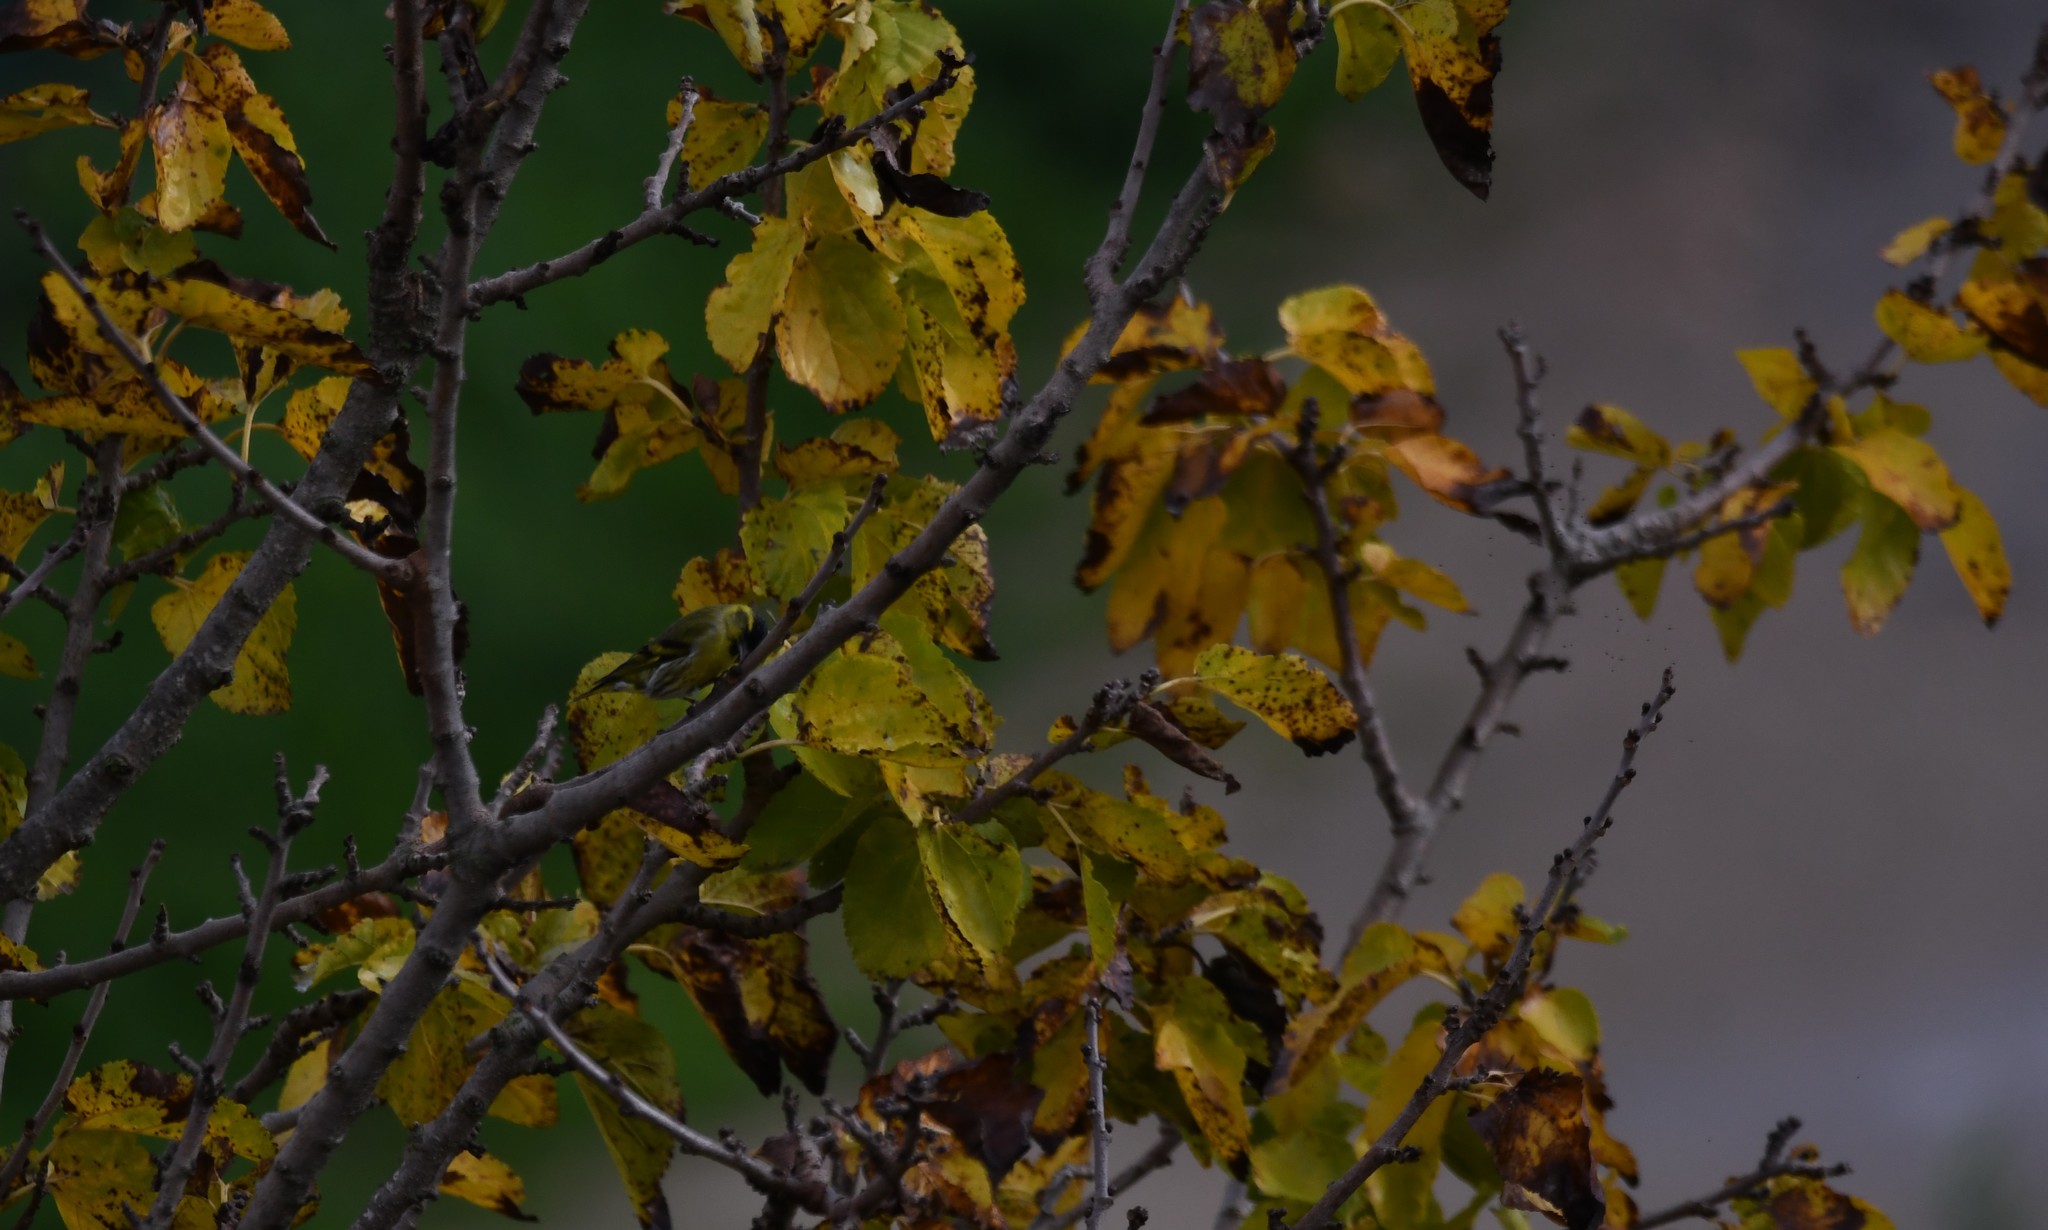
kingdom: Animalia
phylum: Chordata
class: Aves
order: Passeriformes
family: Fringillidae
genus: Spinus
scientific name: Spinus spinus
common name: Eurasian siskin
